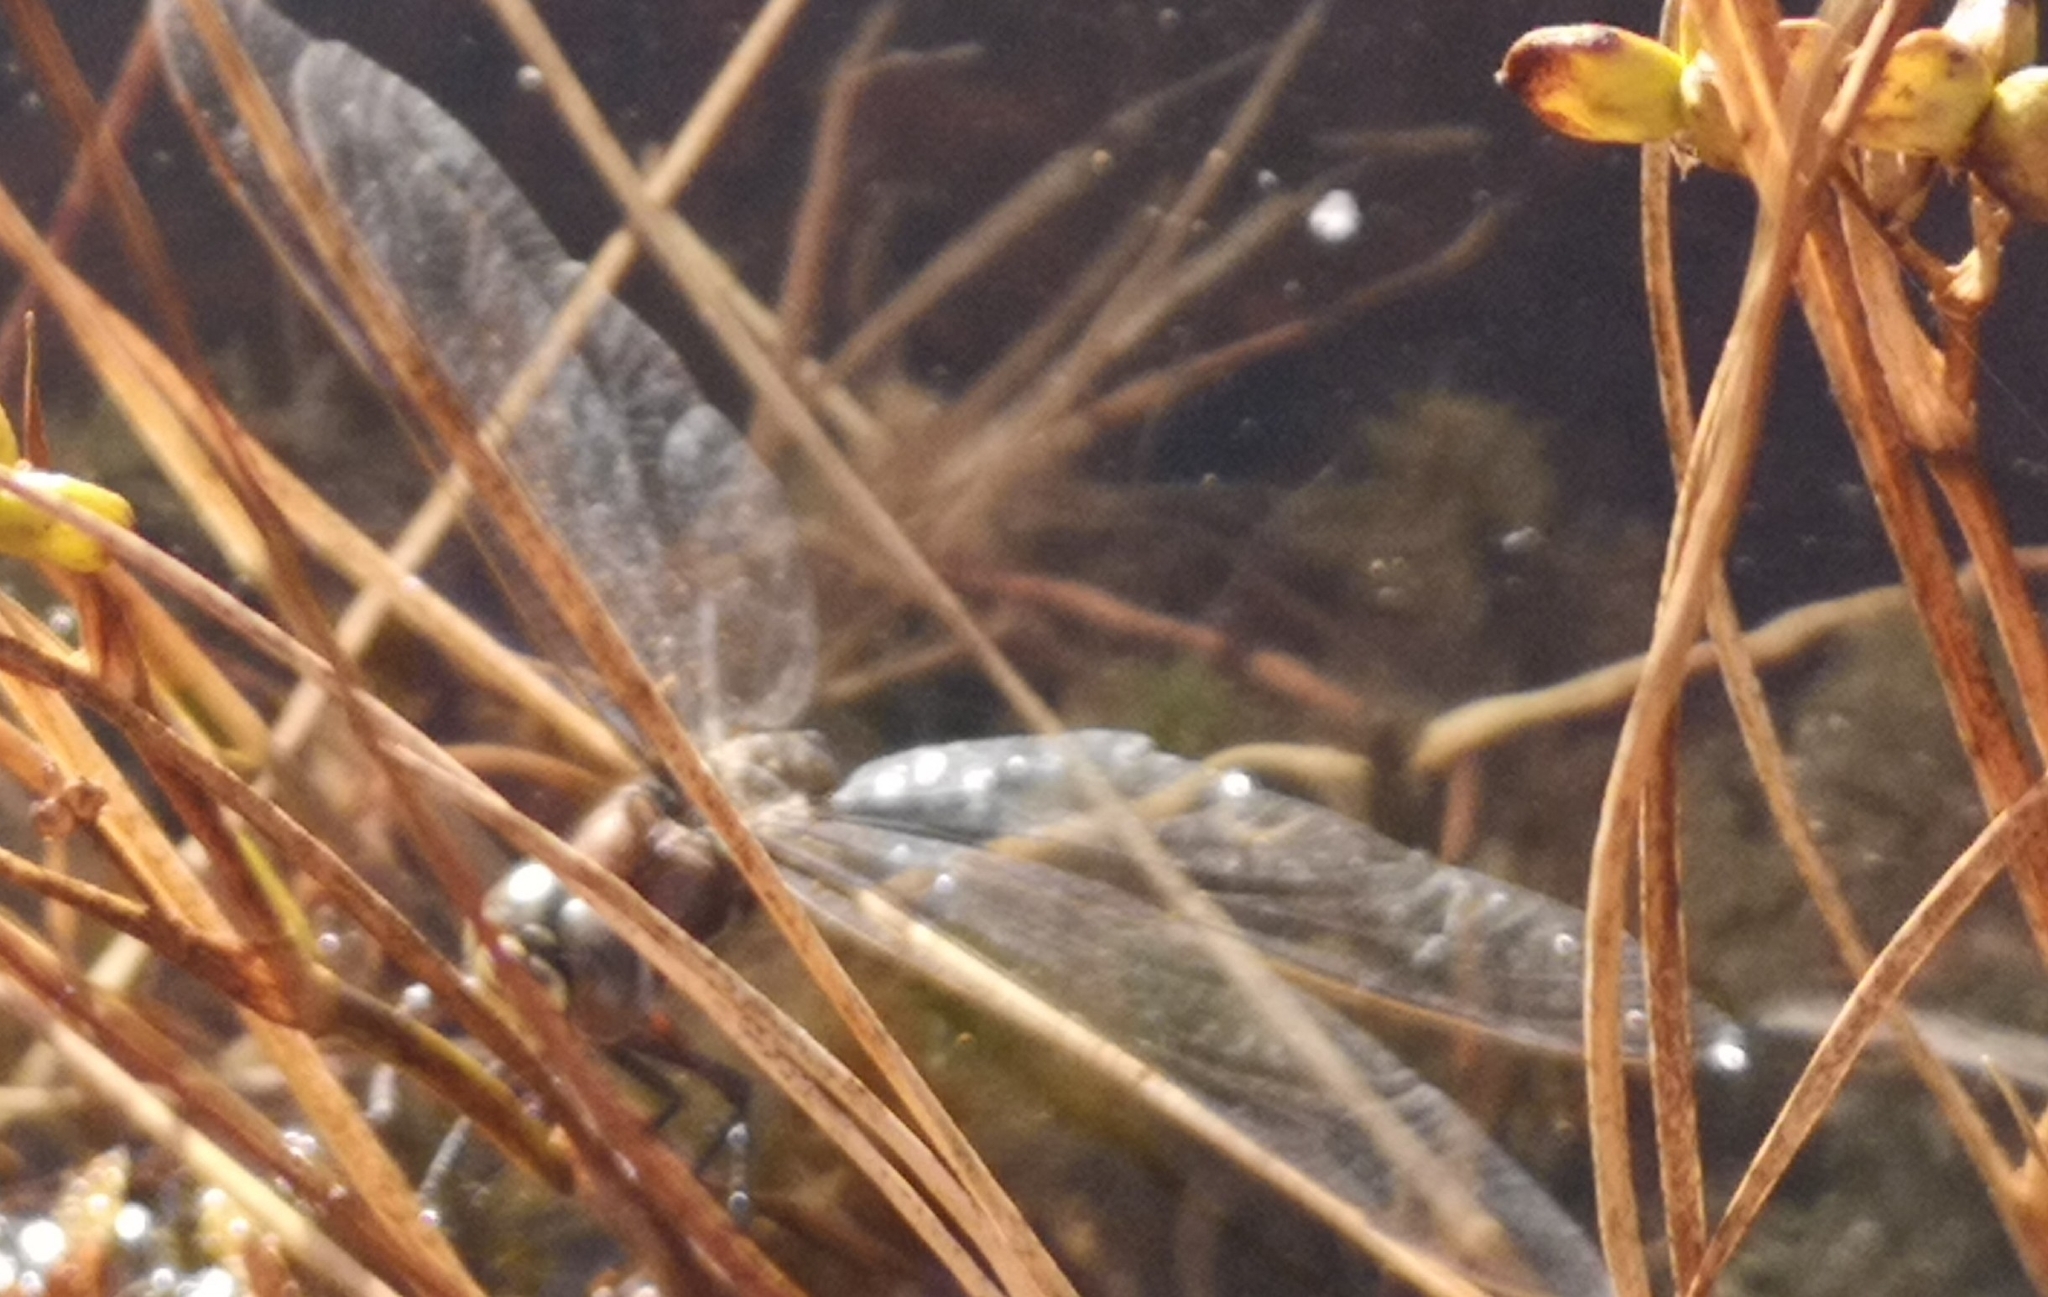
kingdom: Animalia
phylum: Arthropoda
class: Insecta
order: Odonata
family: Aeshnidae
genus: Aeshna
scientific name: Aeshna juncea
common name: Moorland hawker
